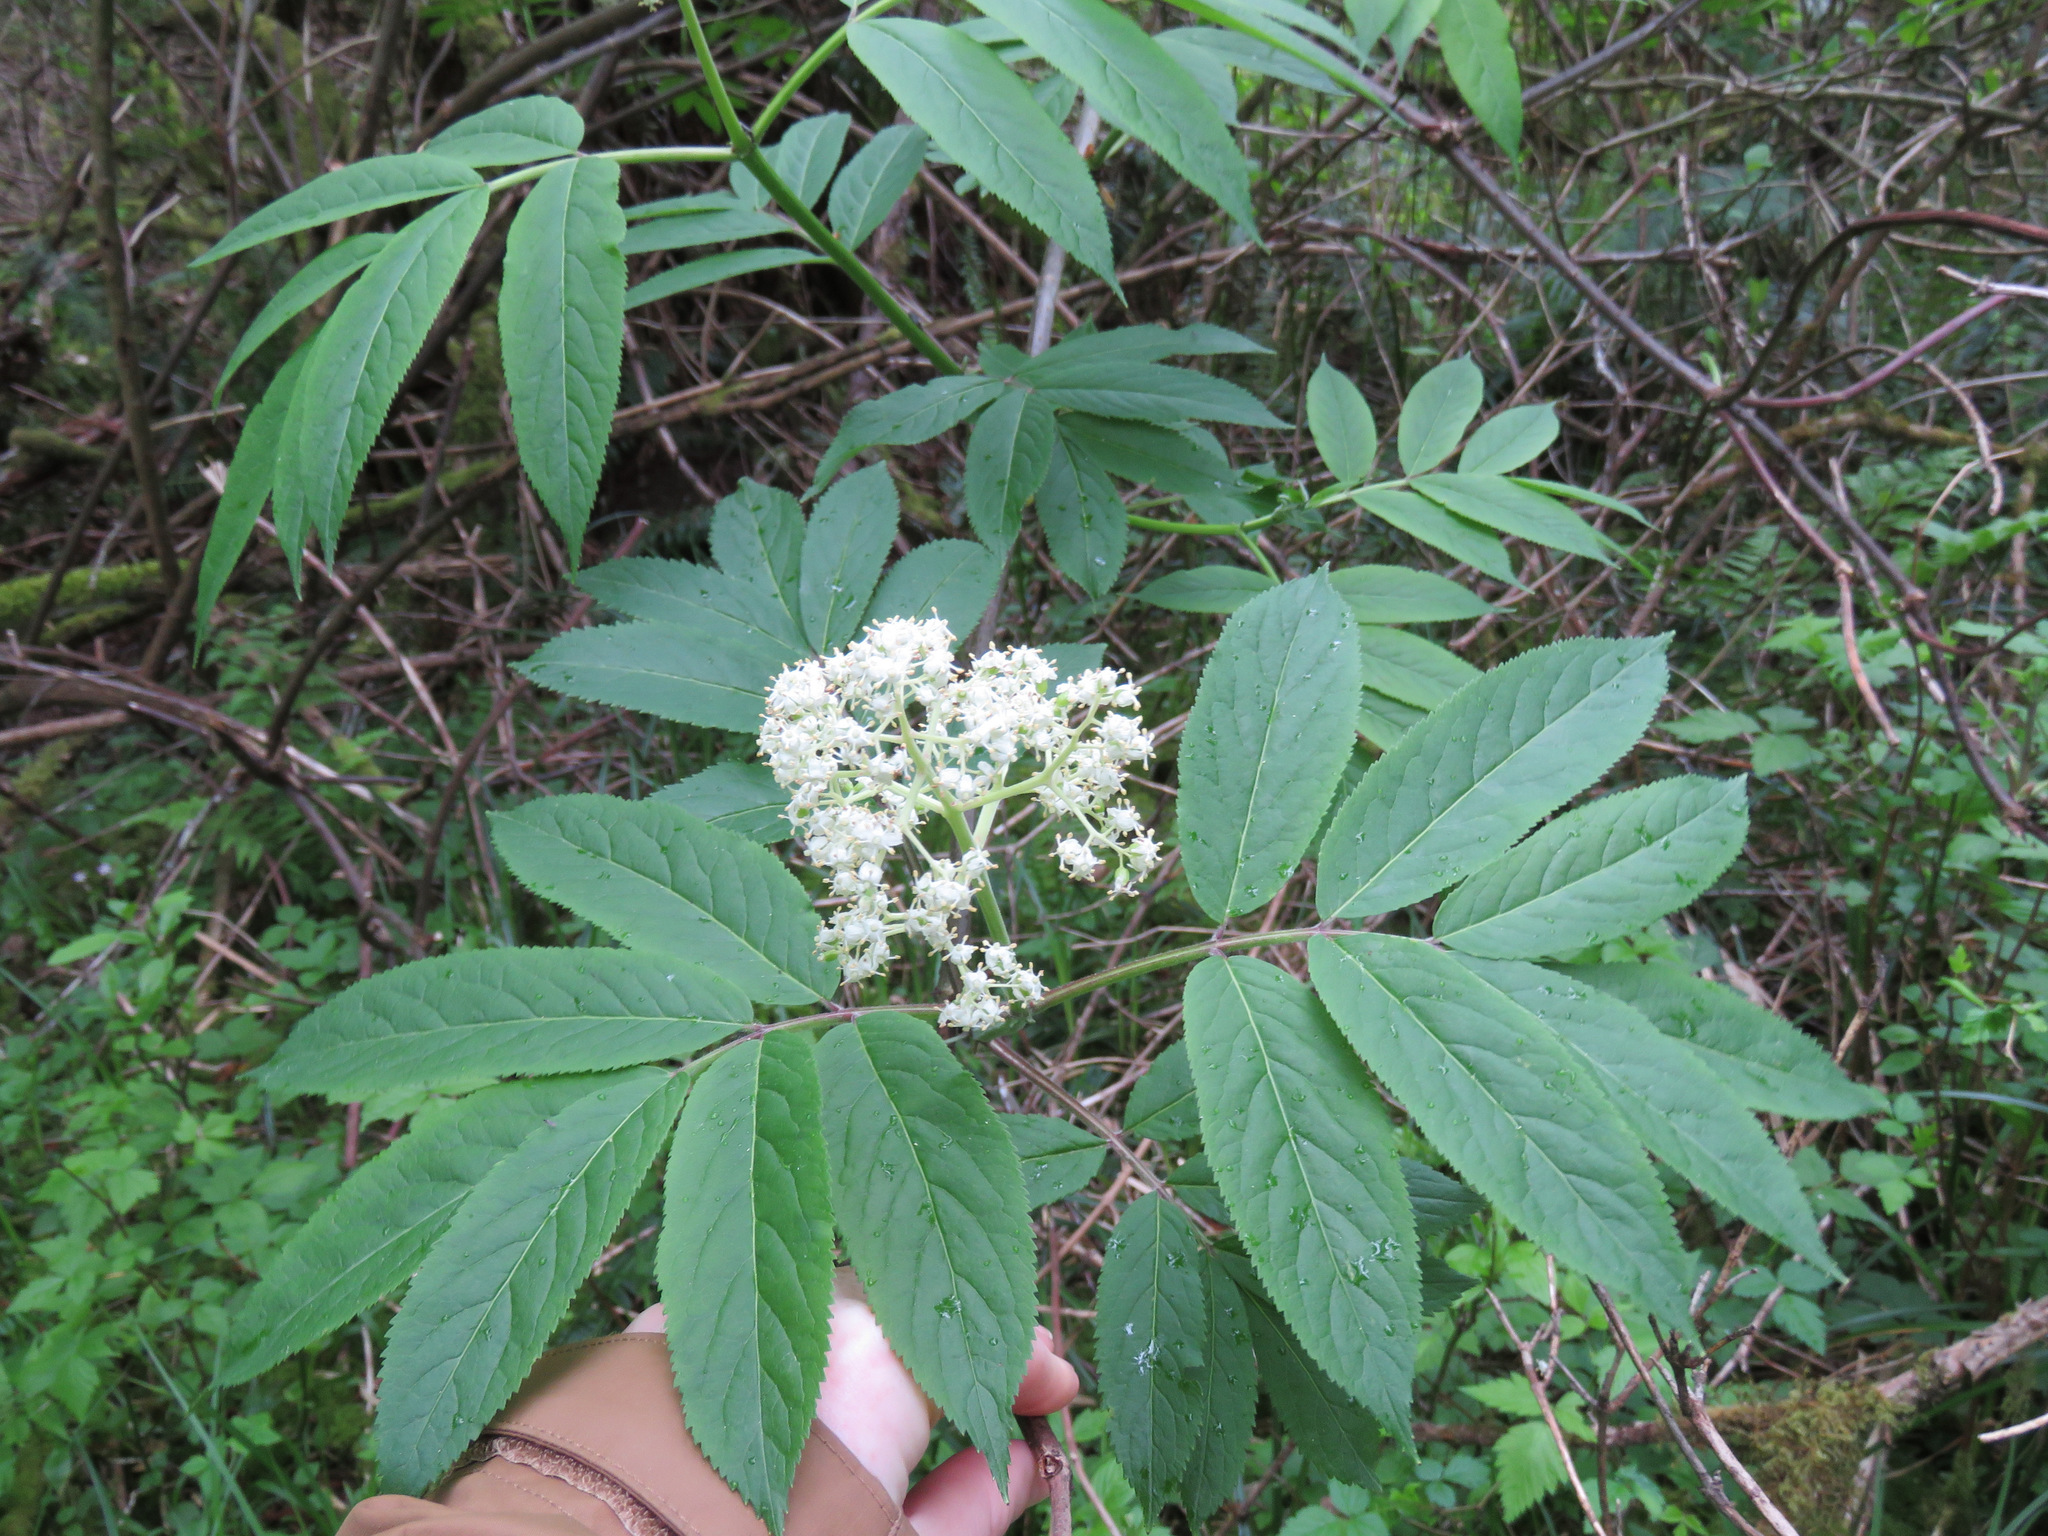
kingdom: Plantae
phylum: Tracheophyta
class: Magnoliopsida
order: Dipsacales
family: Viburnaceae
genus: Sambucus
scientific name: Sambucus racemosa
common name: Red-berried elder
